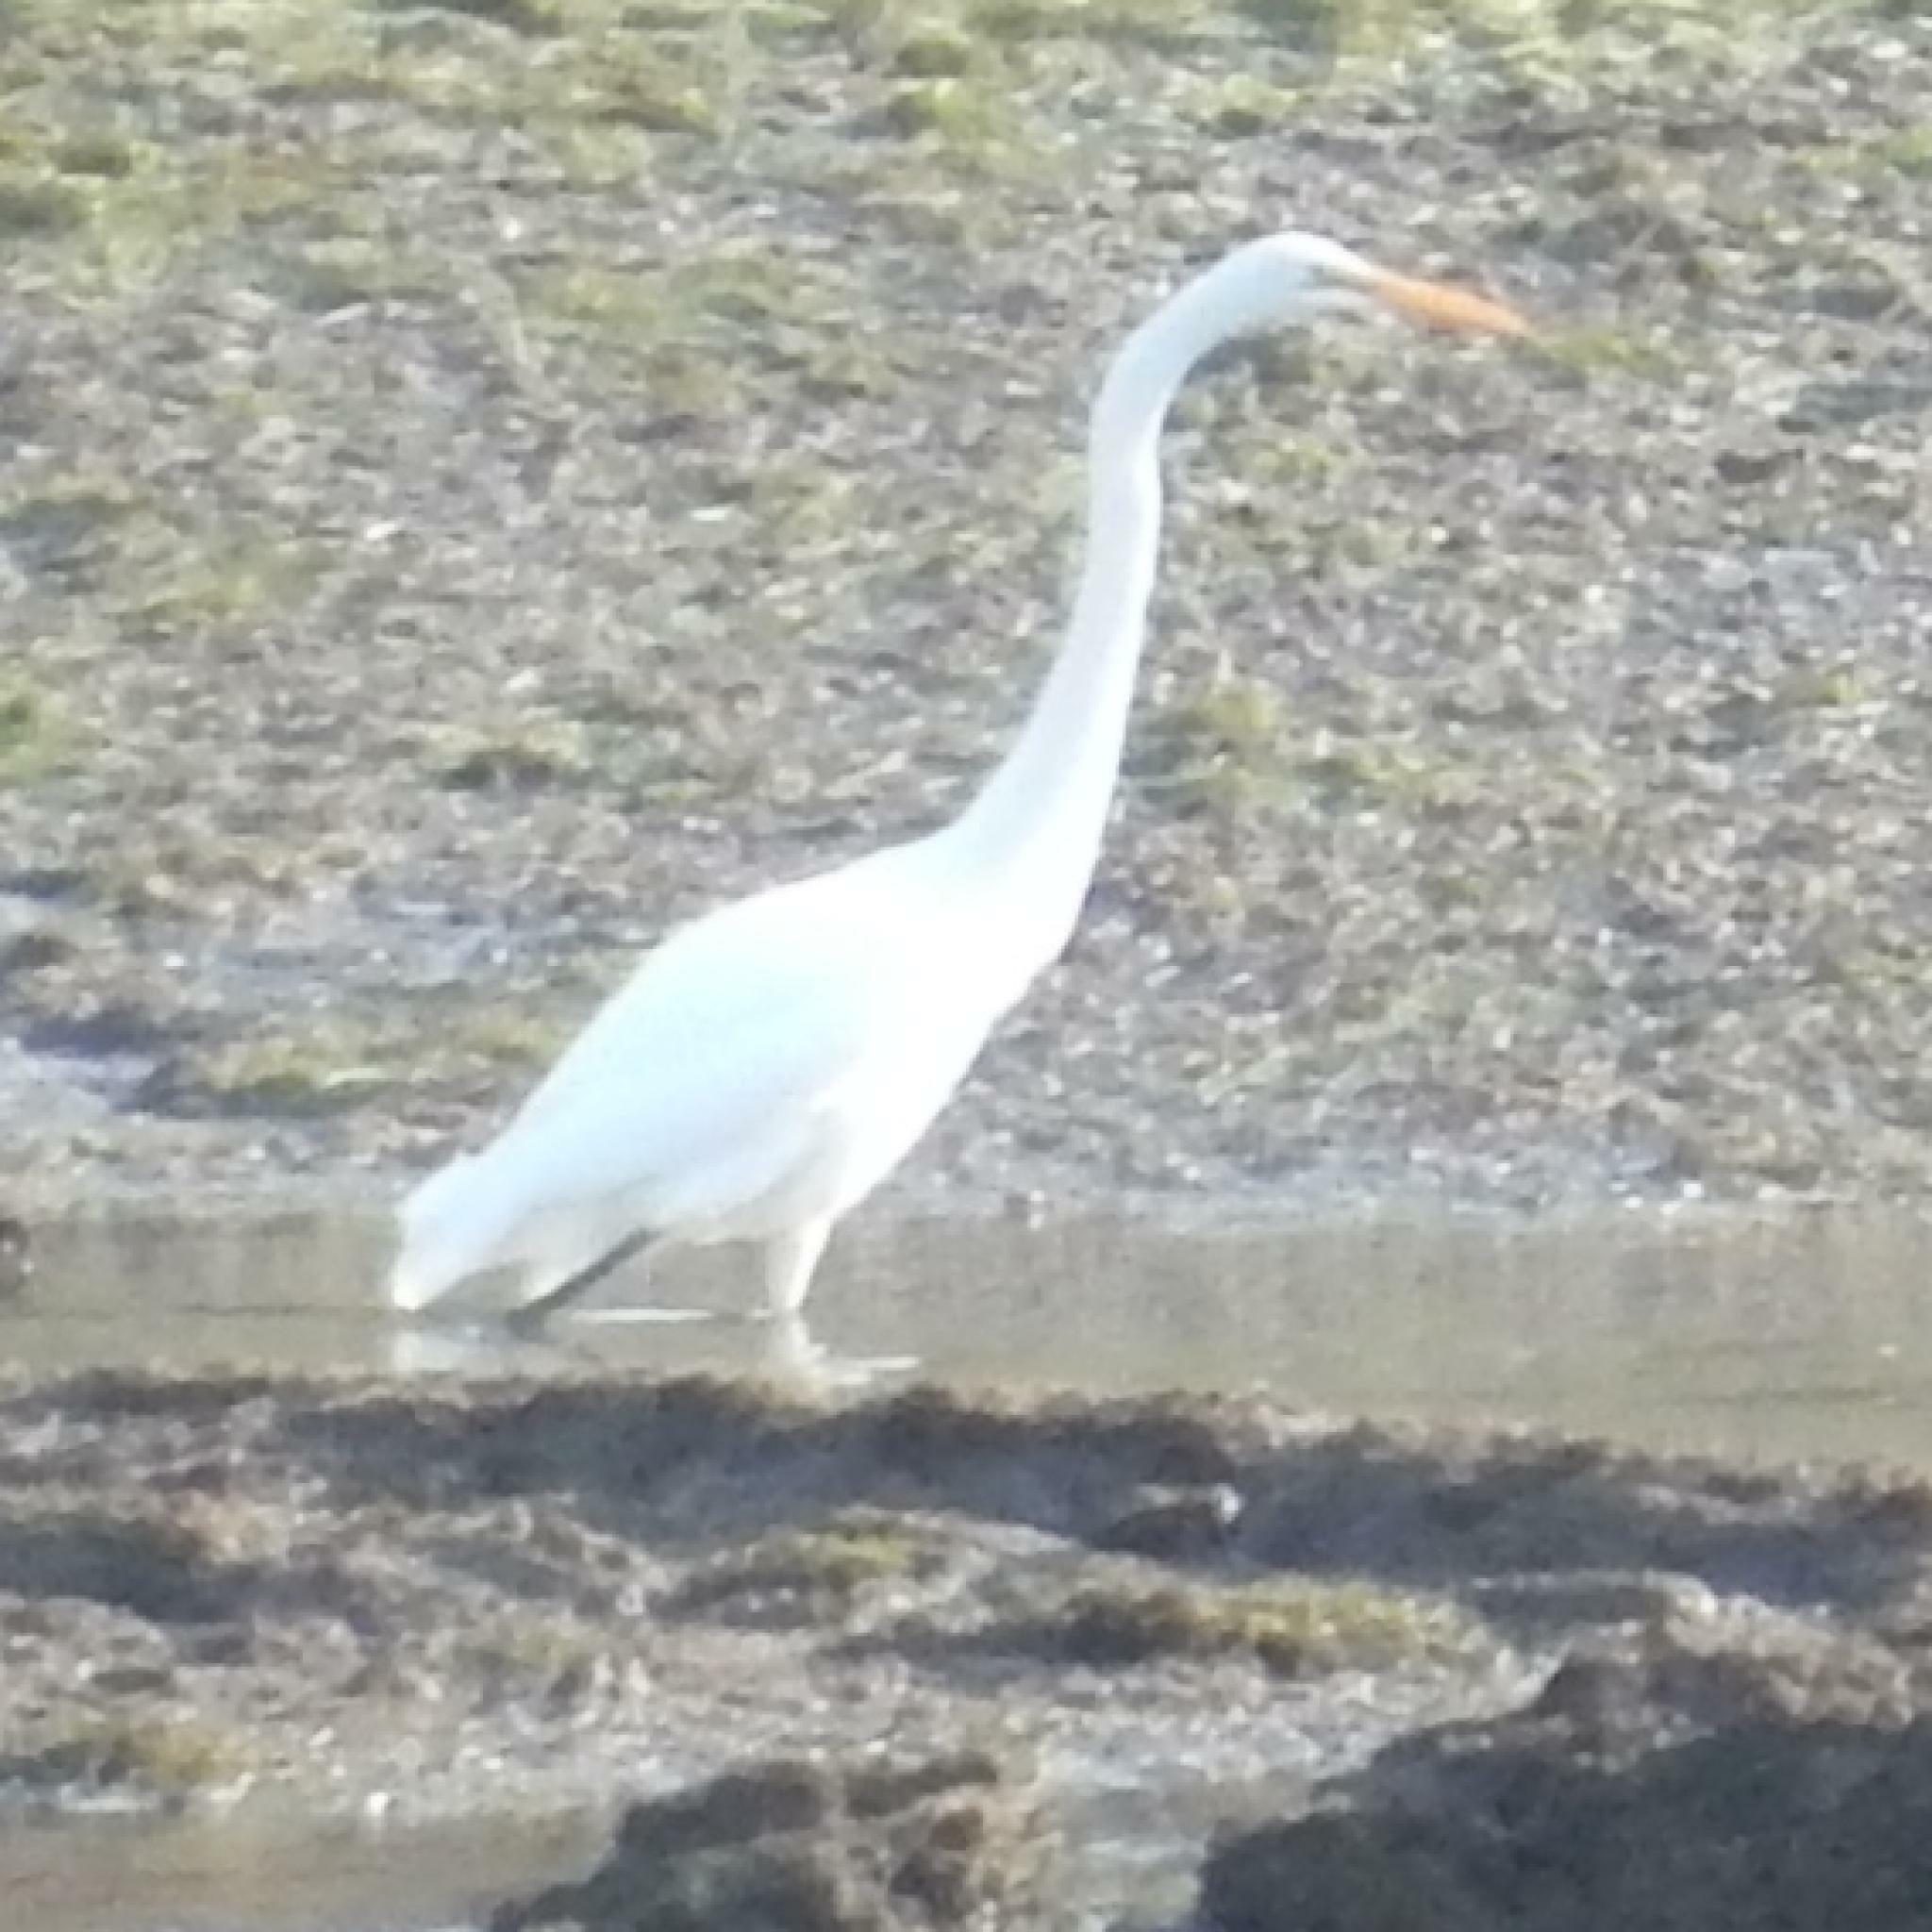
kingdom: Animalia
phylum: Chordata
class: Aves
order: Pelecaniformes
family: Ardeidae
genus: Ardea
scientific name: Ardea alba
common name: Great egret
